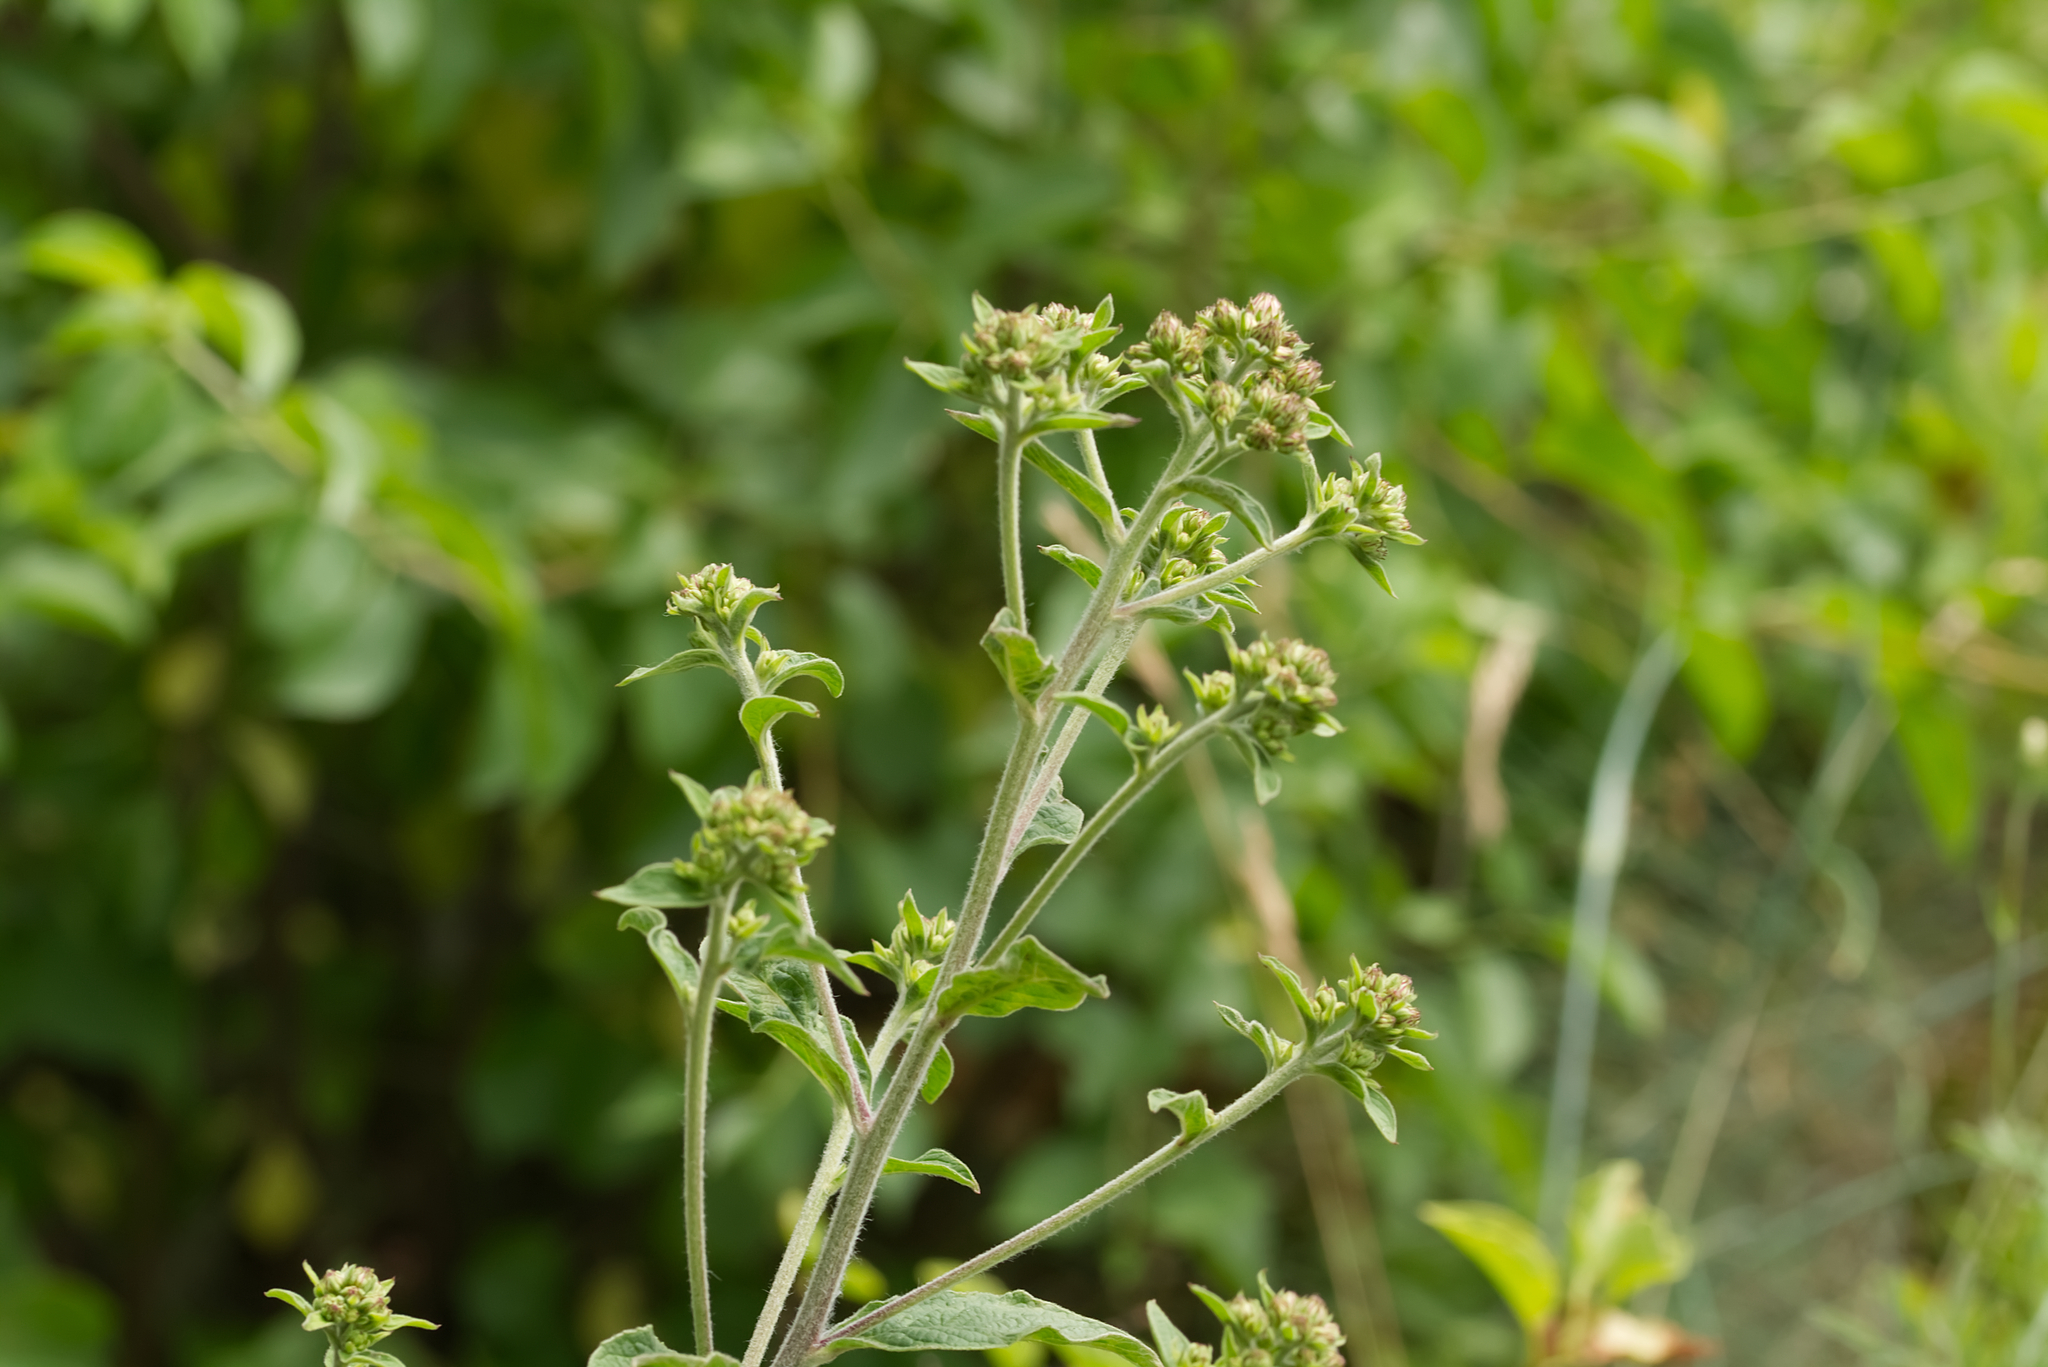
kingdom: Plantae
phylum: Tracheophyta
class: Magnoliopsida
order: Asterales
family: Asteraceae
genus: Pentanema
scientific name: Pentanema squarrosum
